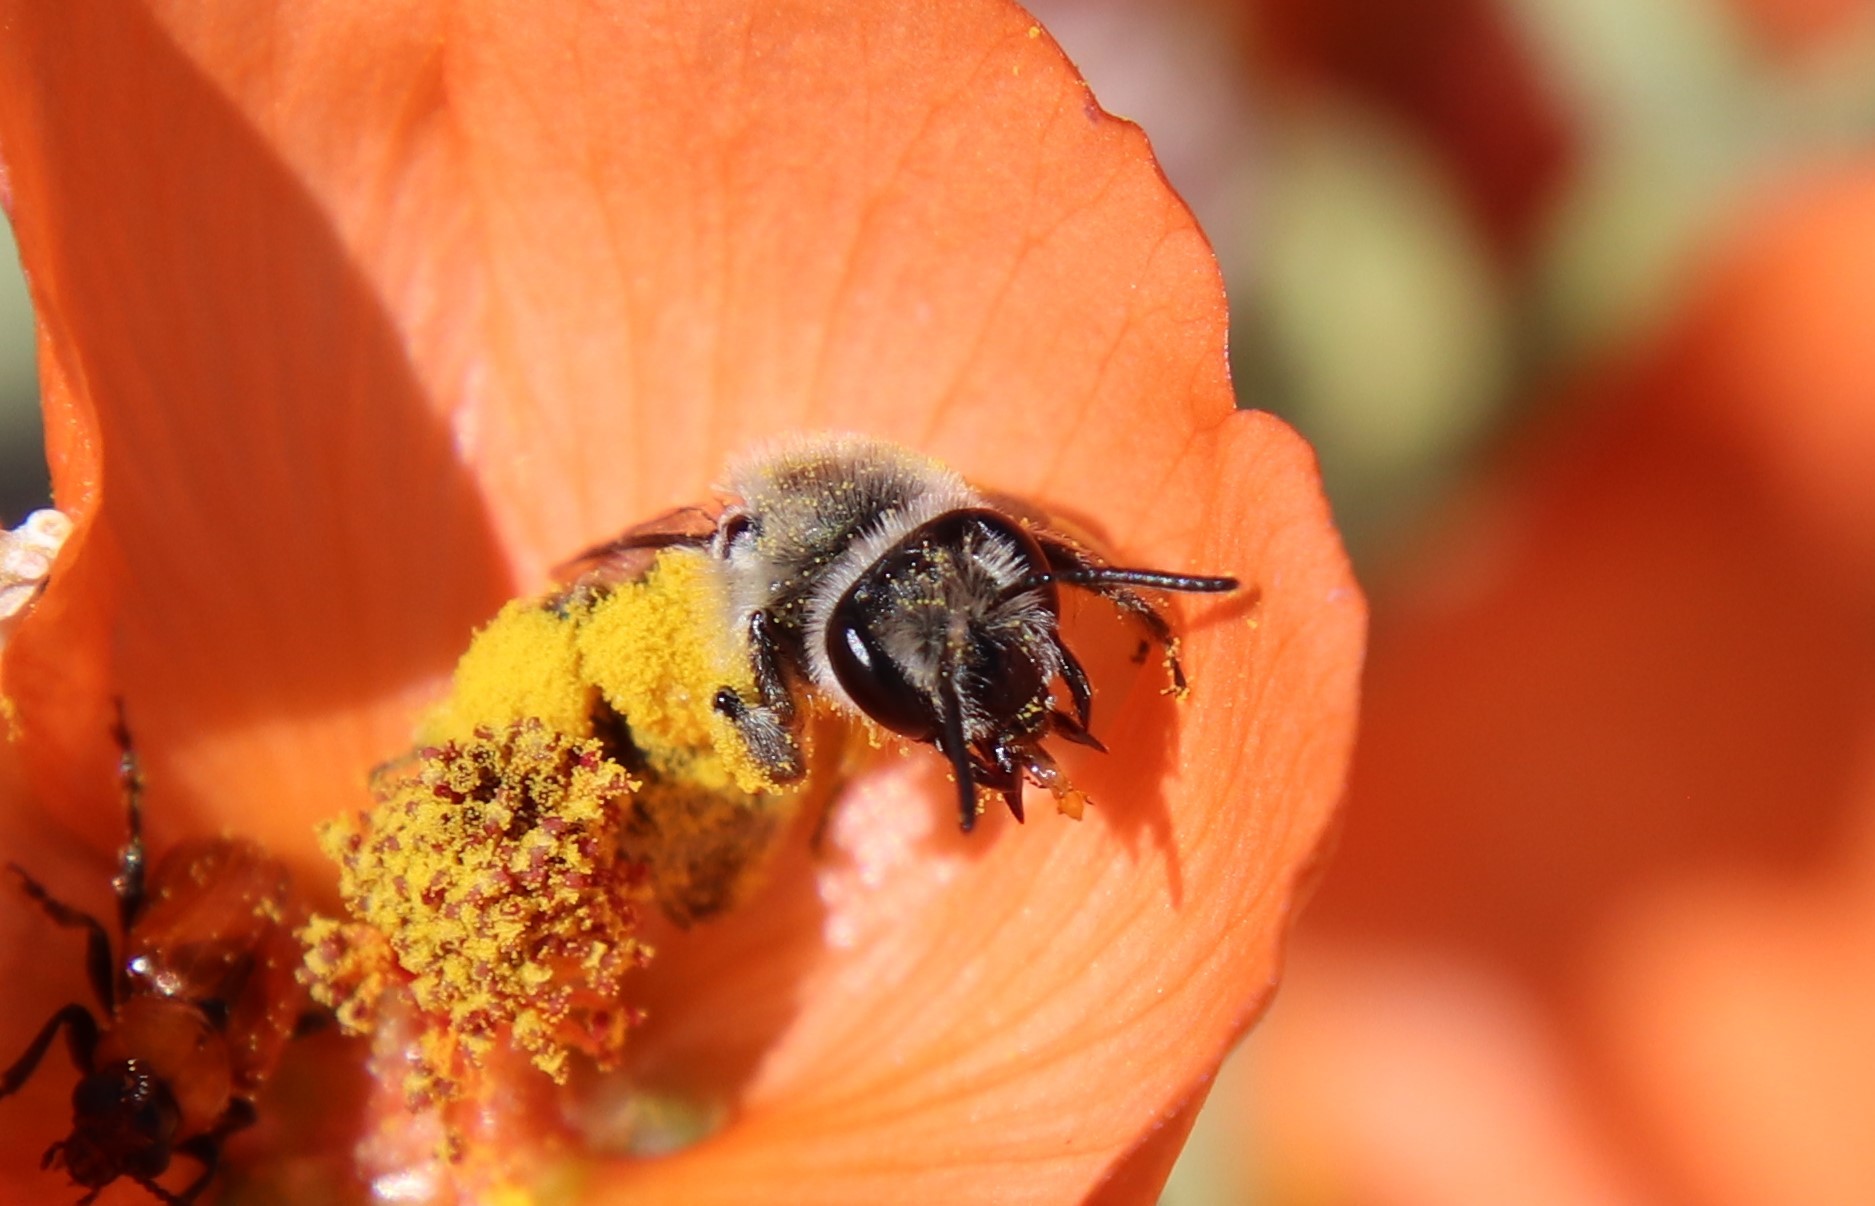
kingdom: Animalia
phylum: Arthropoda
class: Insecta
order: Hymenoptera
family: Andrenidae
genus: Andrena
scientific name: Andrena sphaeralceae
